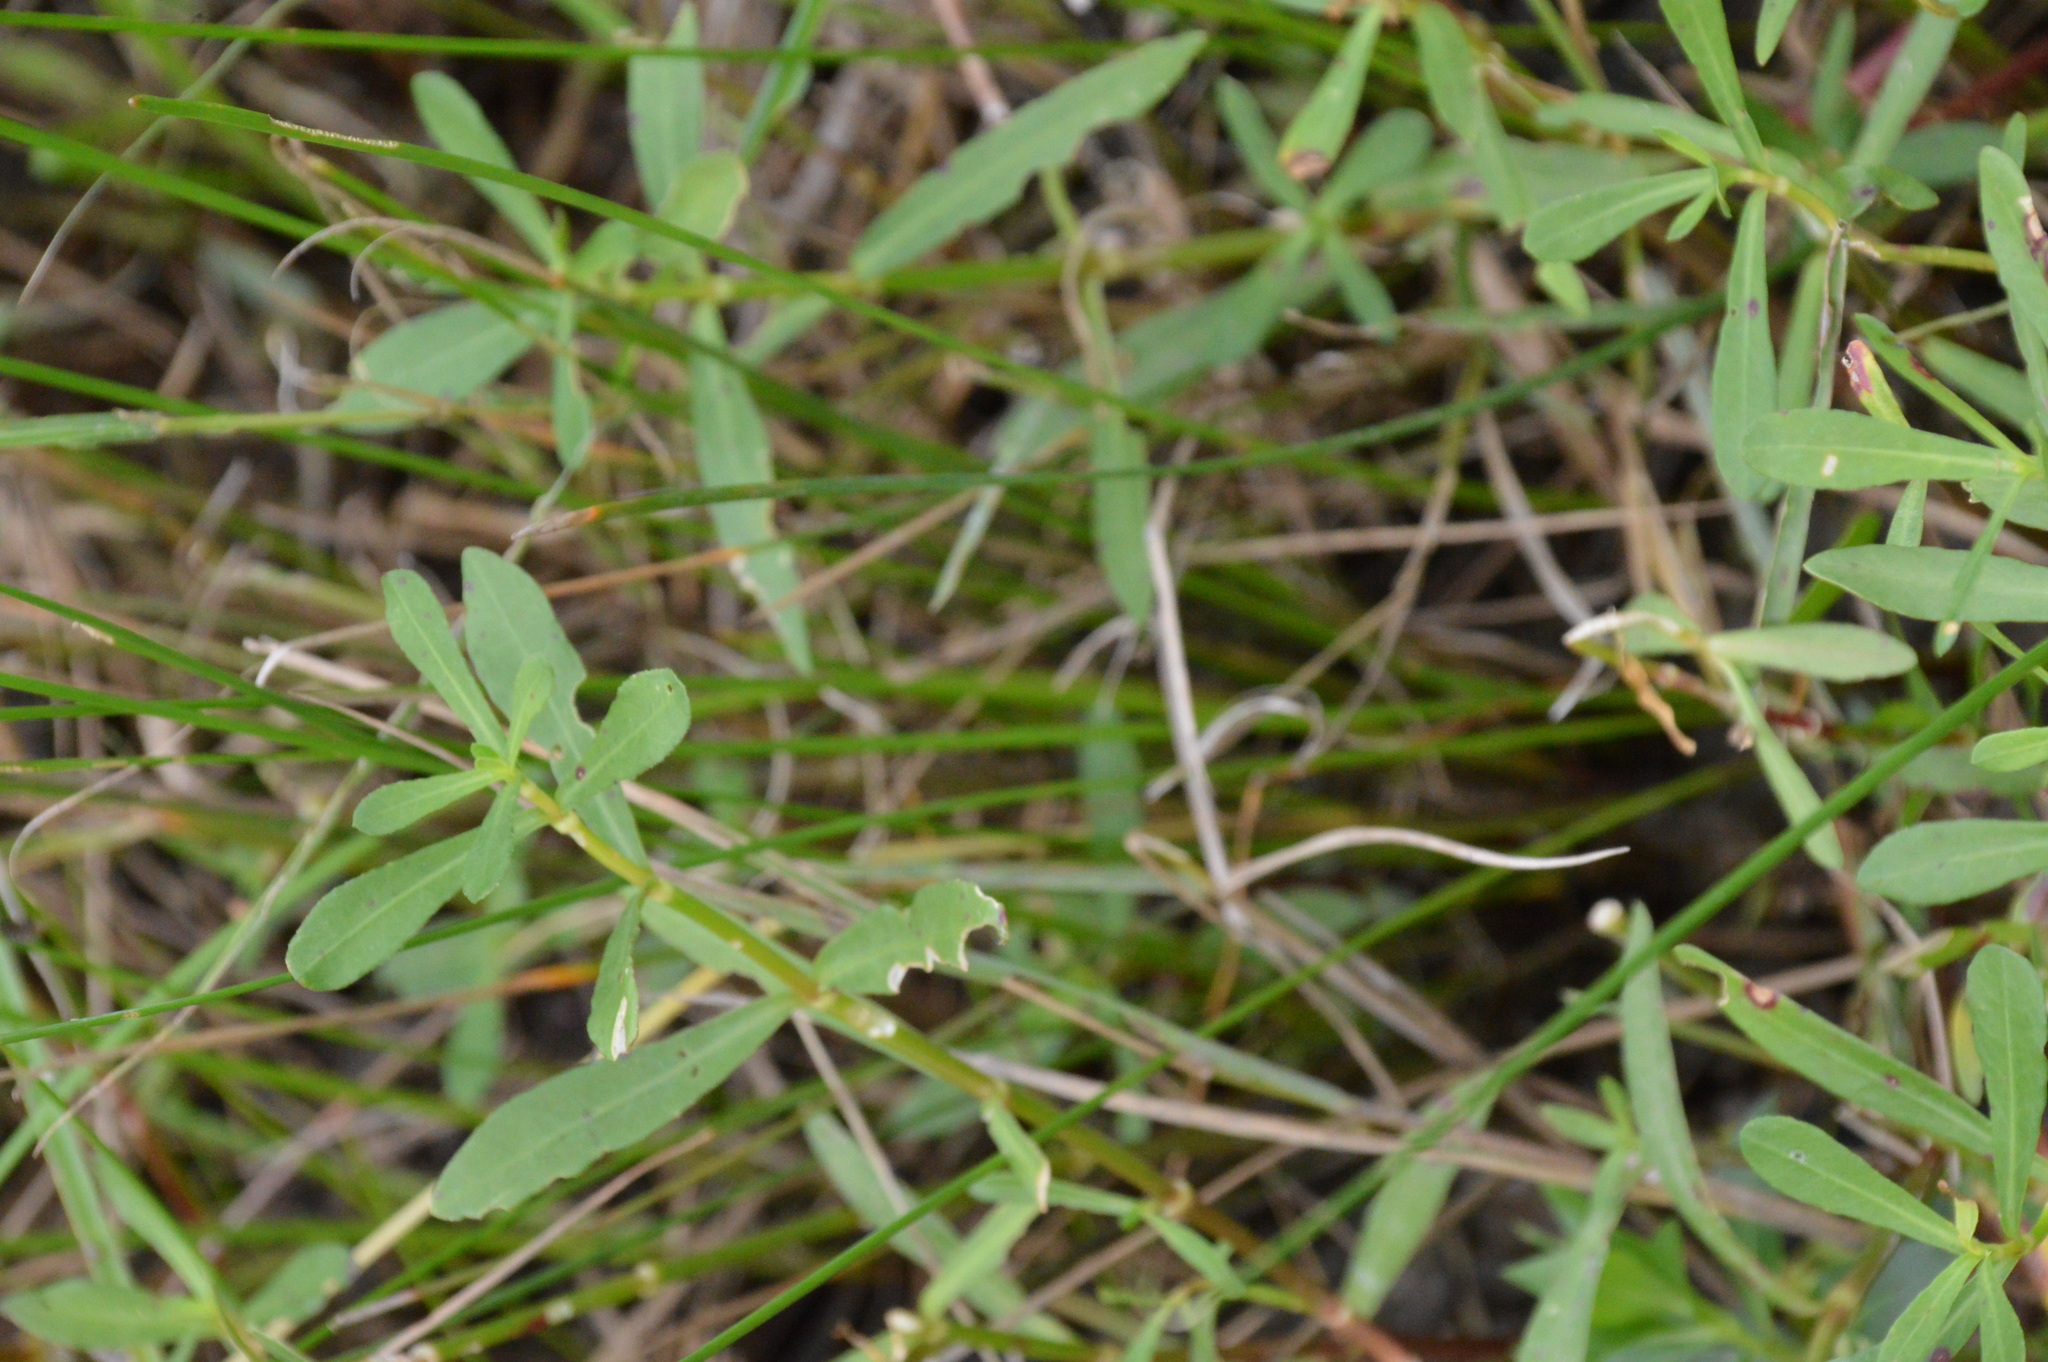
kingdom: Plantae
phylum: Tracheophyta
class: Magnoliopsida
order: Caryophyllales
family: Amaranthaceae
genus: Alternanthera
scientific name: Alternanthera philoxeroides
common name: Alligatorweed
